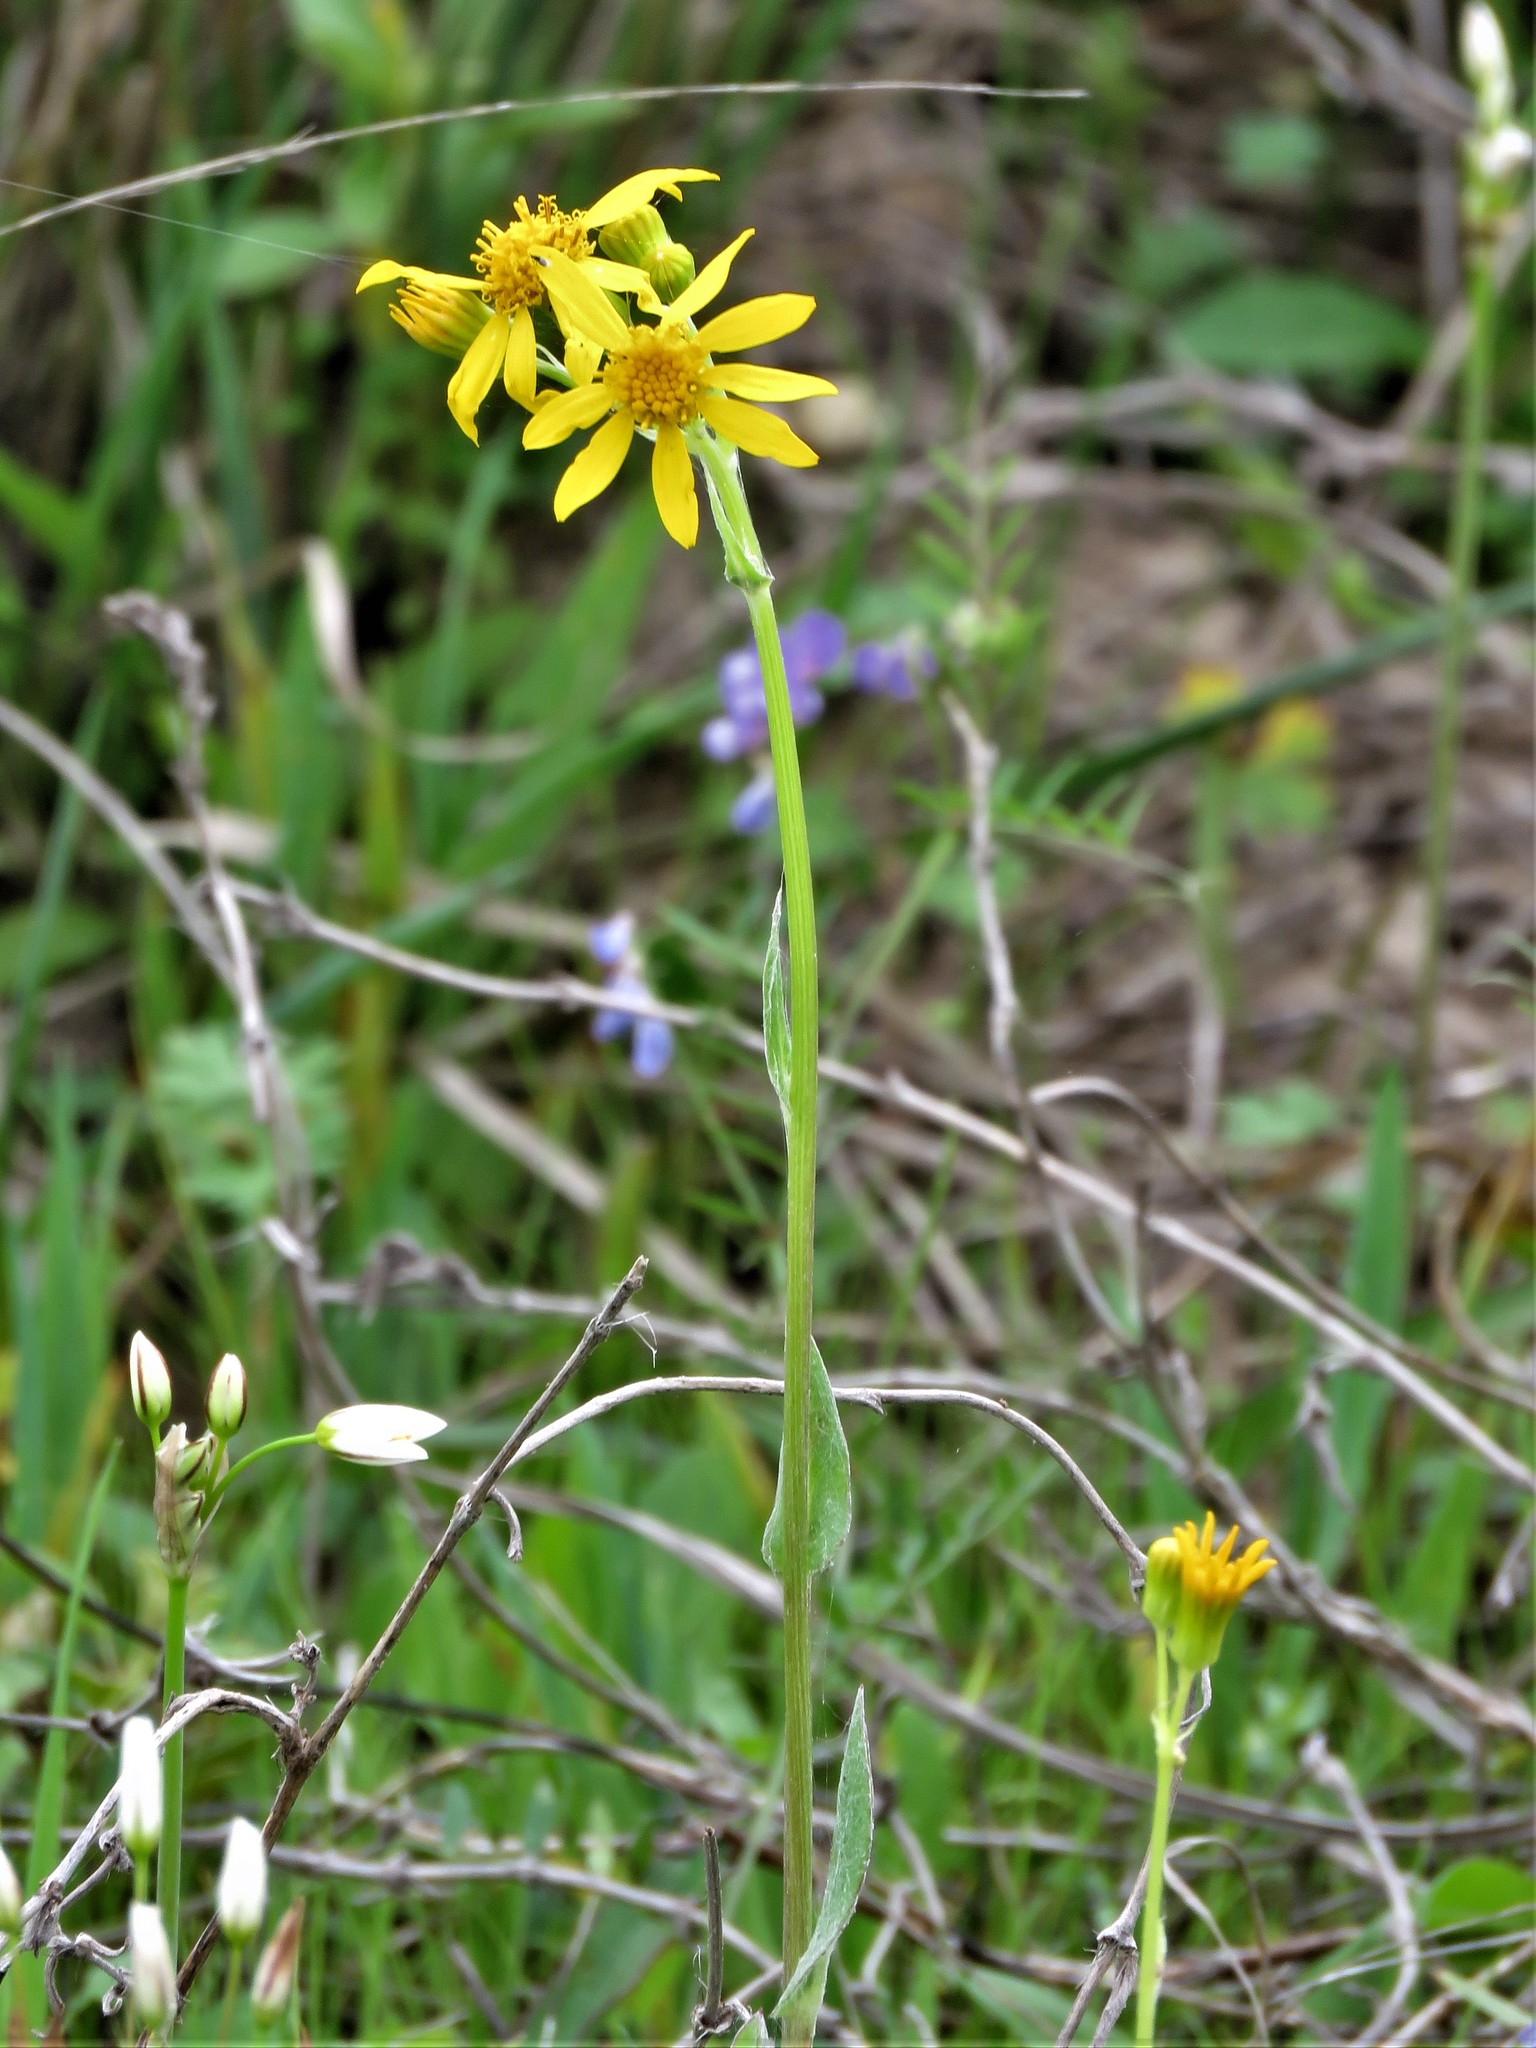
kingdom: Plantae
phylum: Tracheophyta
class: Magnoliopsida
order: Asterales
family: Asteraceae
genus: Senecio
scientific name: Senecio ampullaceus
